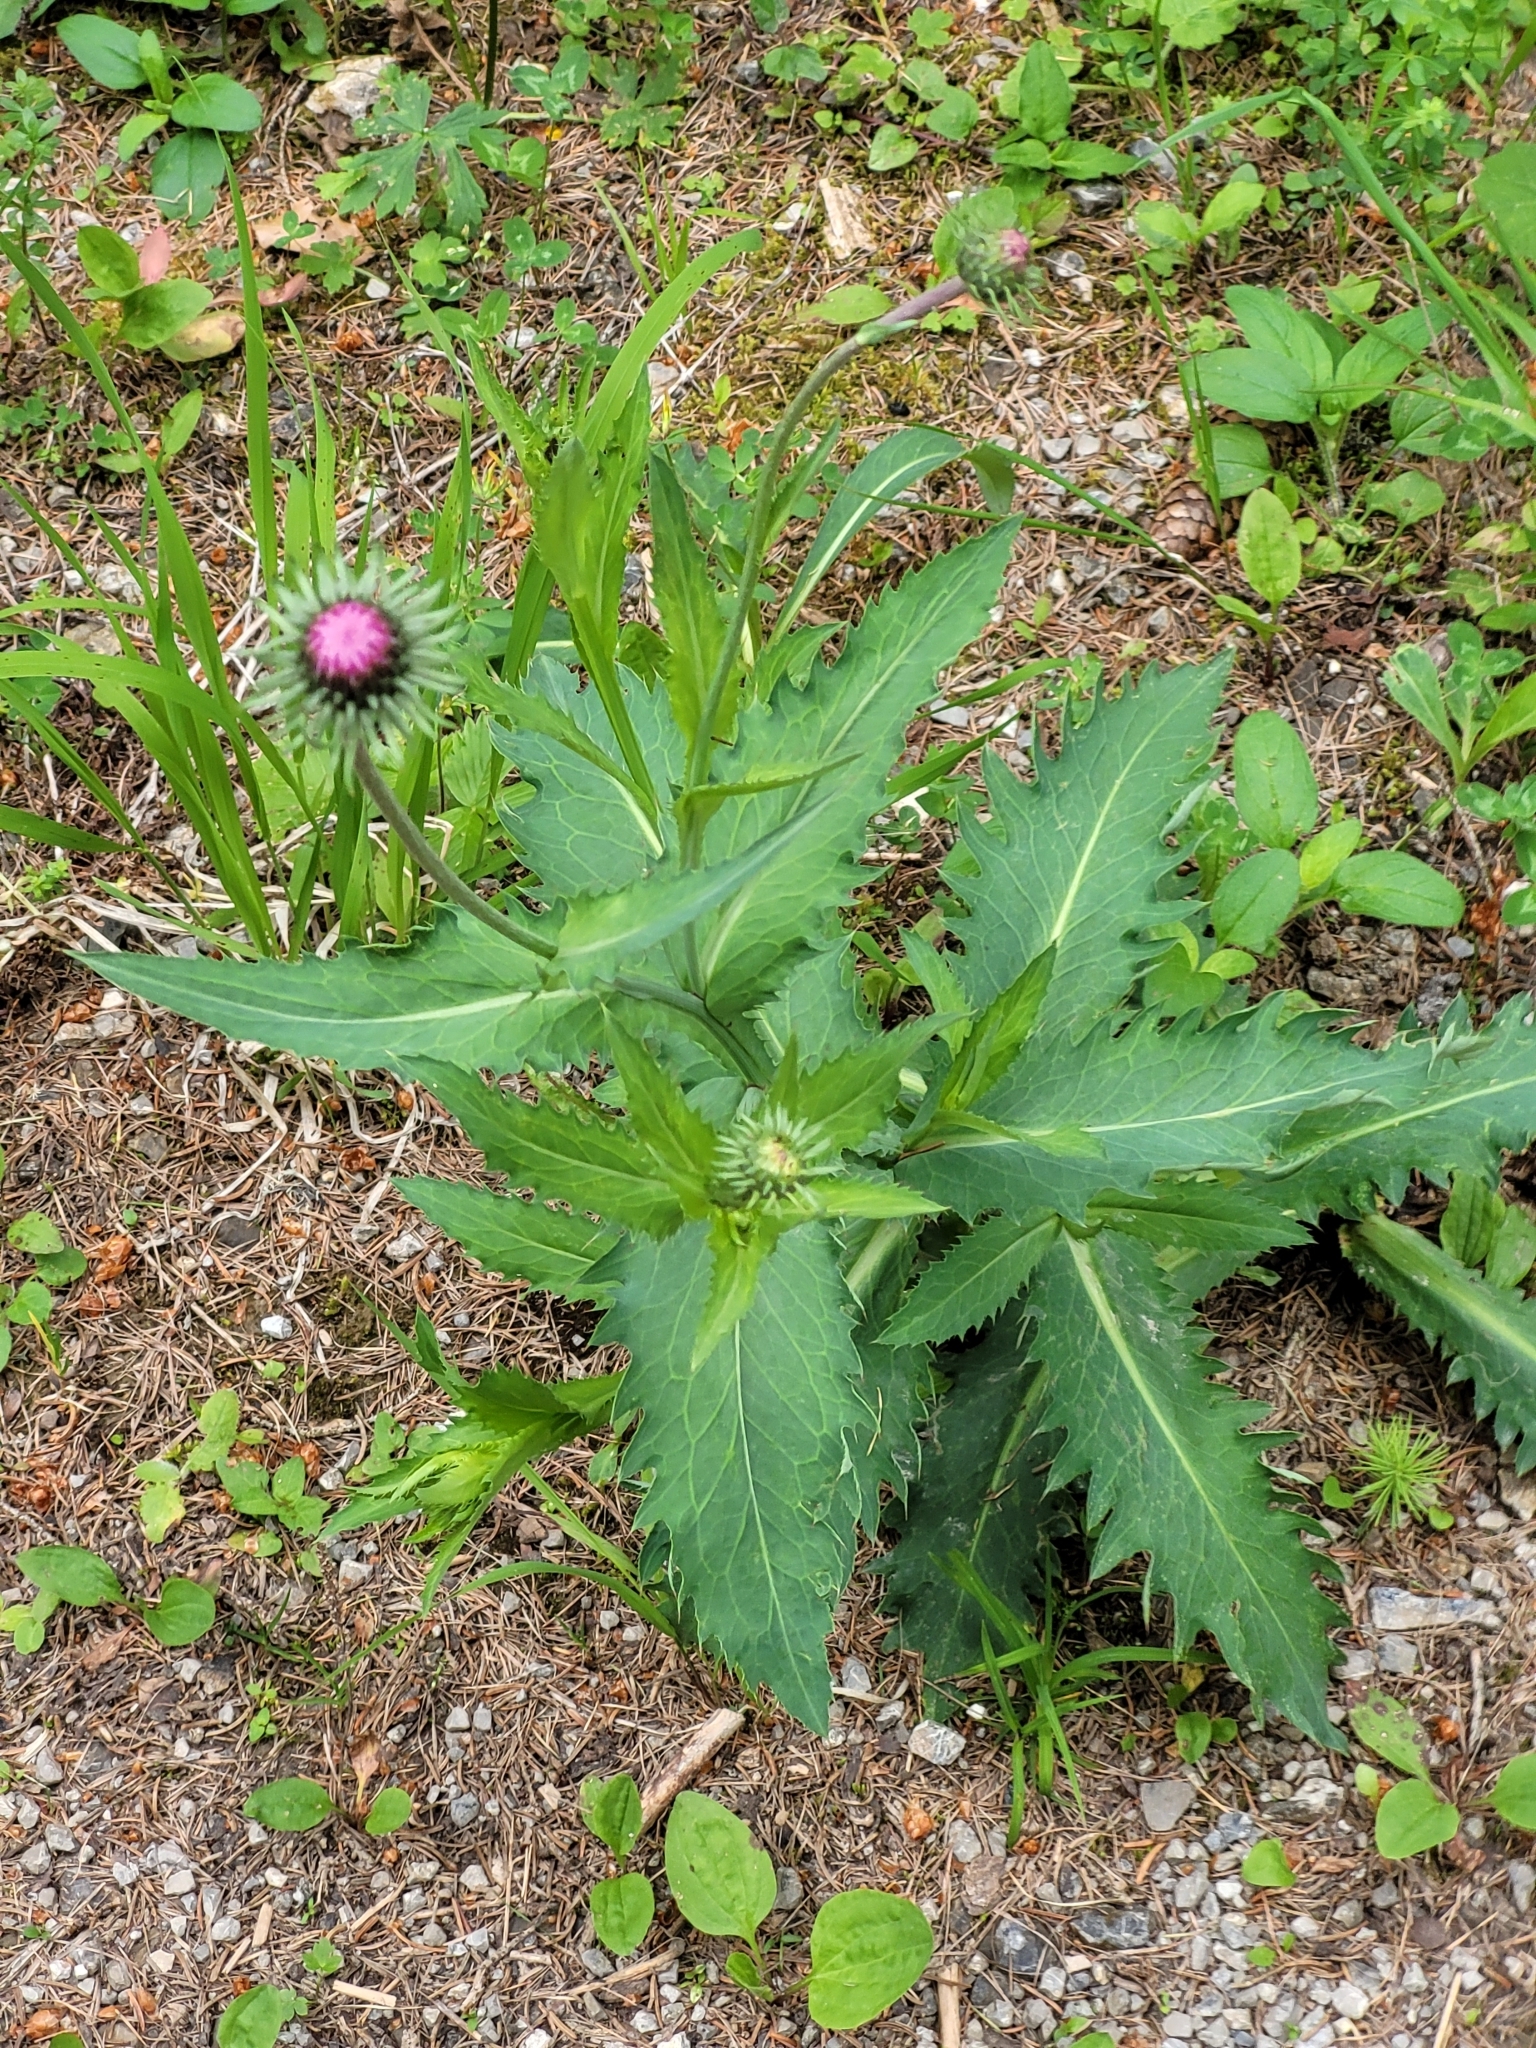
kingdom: Plantae
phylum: Tracheophyta
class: Magnoliopsida
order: Asterales
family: Asteraceae
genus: Carduus
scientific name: Carduus defloratus
